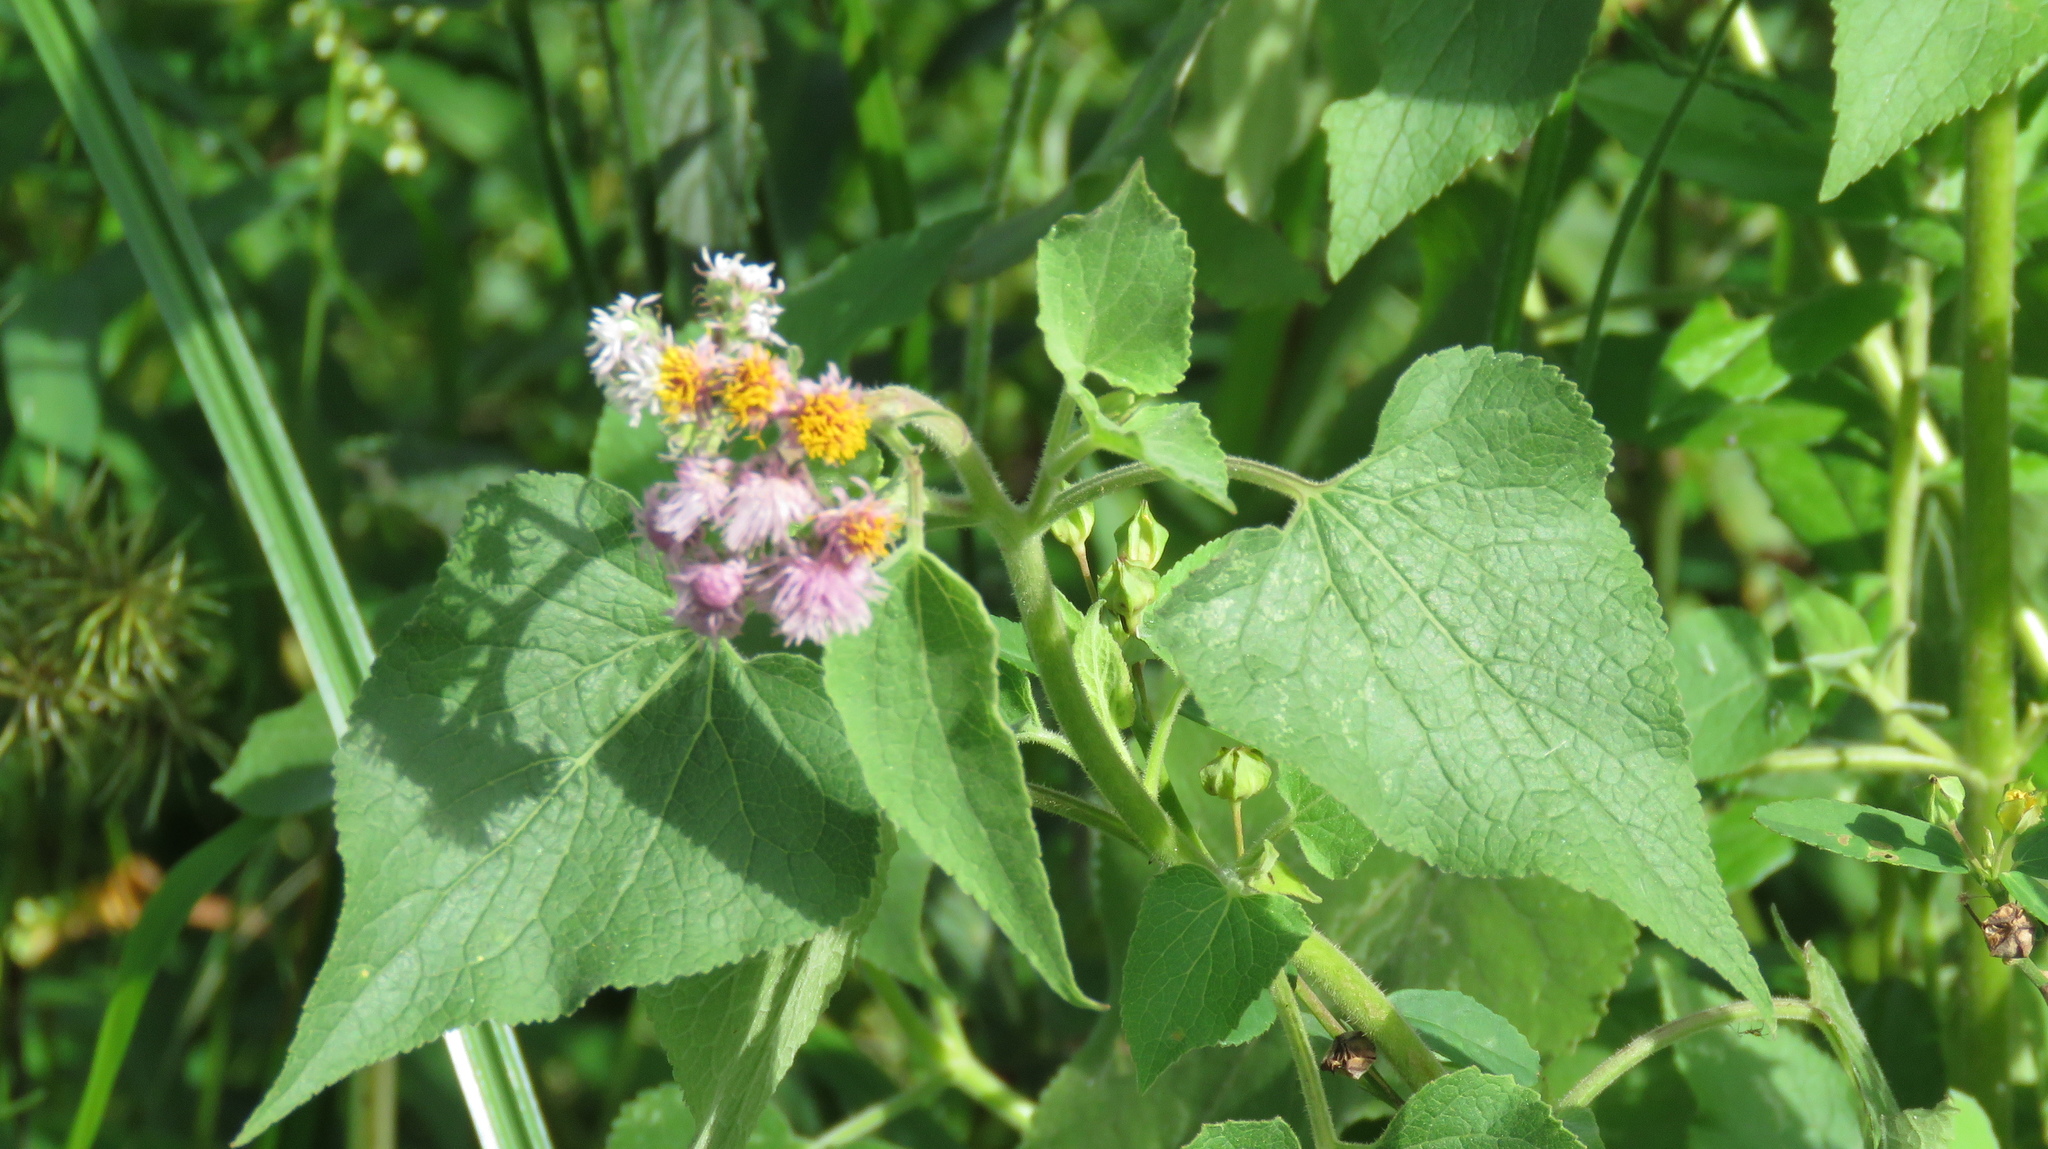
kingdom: Plantae
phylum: Tracheophyta
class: Magnoliopsida
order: Asterales
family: Asteraceae
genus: Urolepis
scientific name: Urolepis hecatantha
